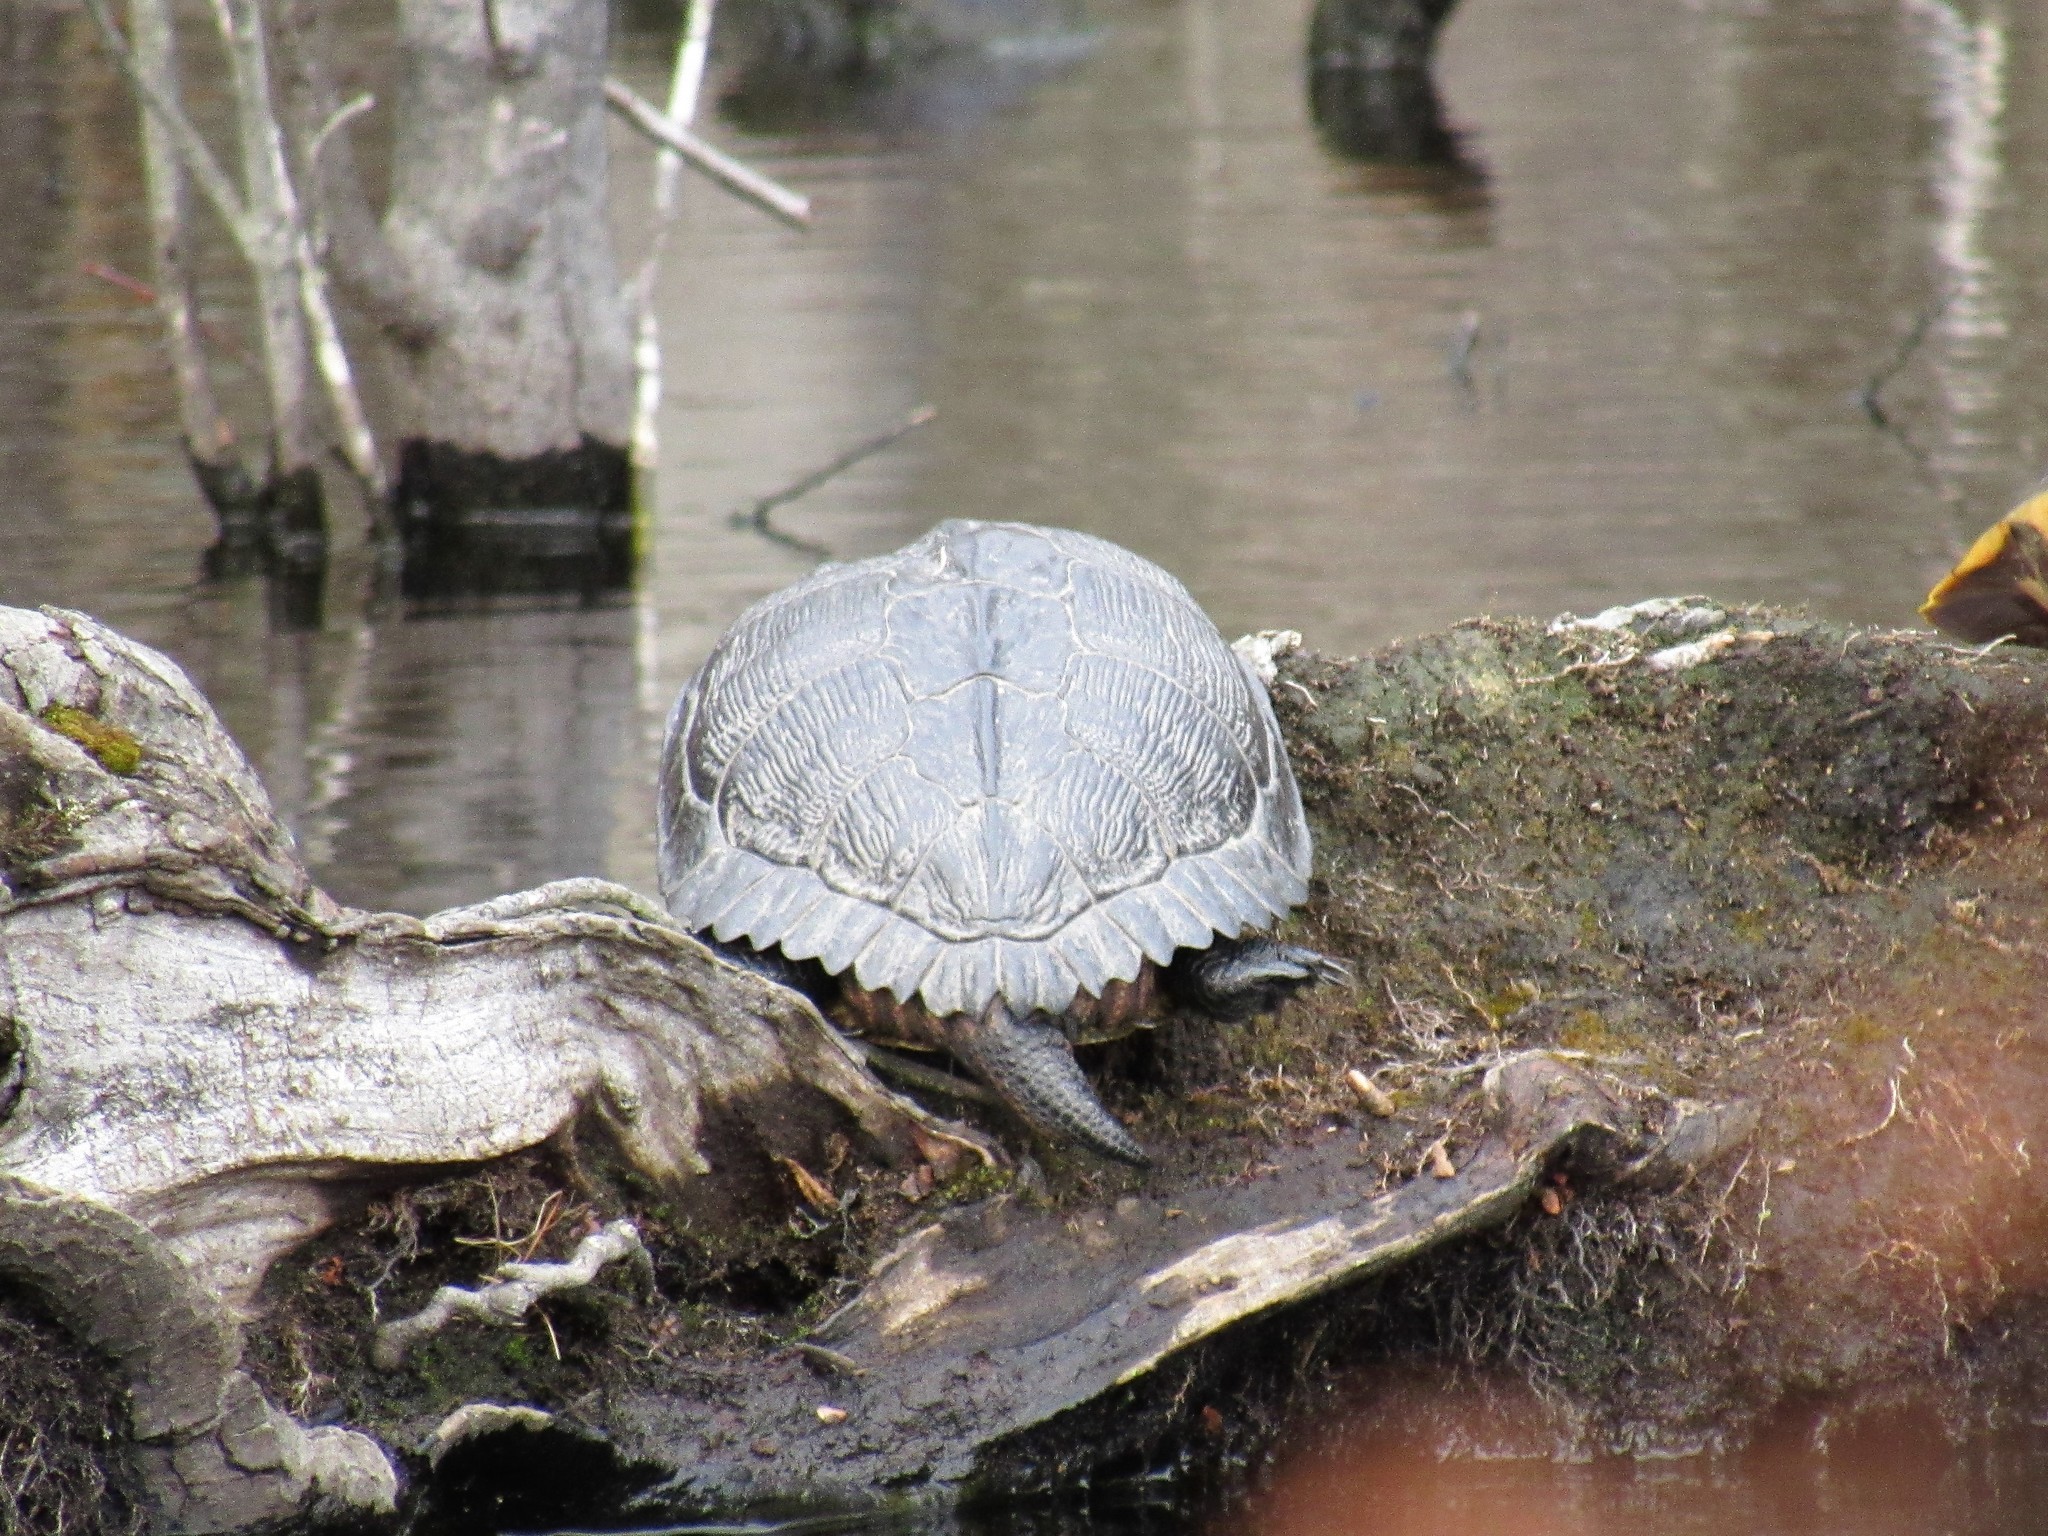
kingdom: Animalia
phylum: Chordata
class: Testudines
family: Emydidae
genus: Trachemys
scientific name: Trachemys scripta
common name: Slider
